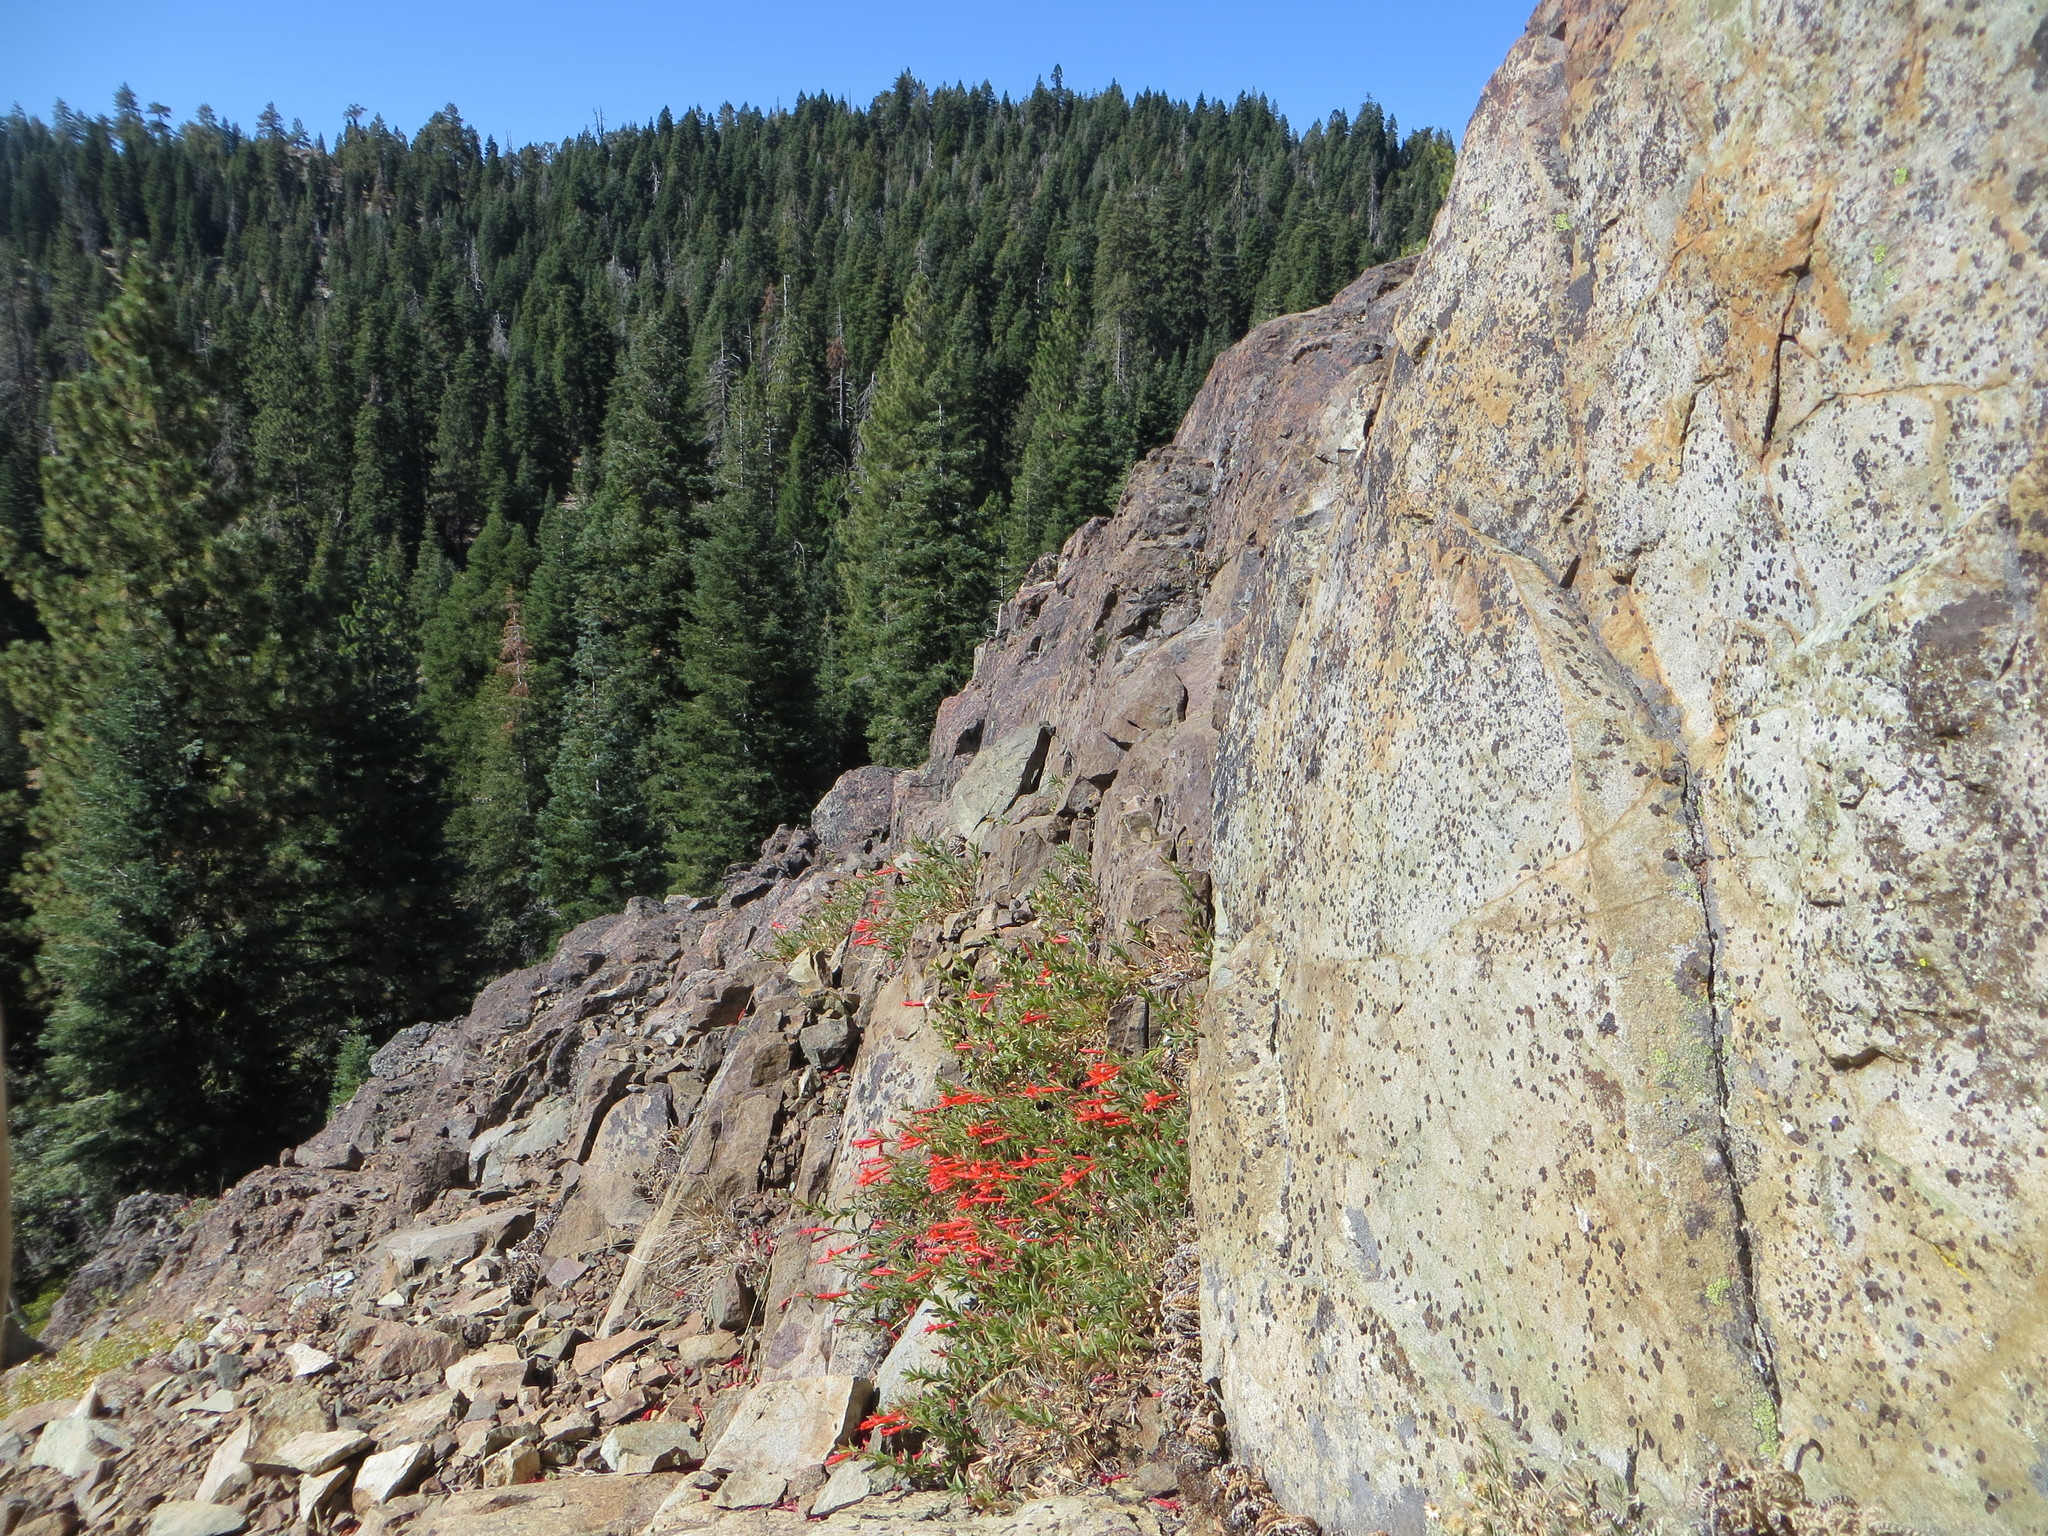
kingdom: Plantae
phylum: Tracheophyta
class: Magnoliopsida
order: Myrtales
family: Onagraceae
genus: Epilobium
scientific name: Epilobium canum
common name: California-fuchsia
